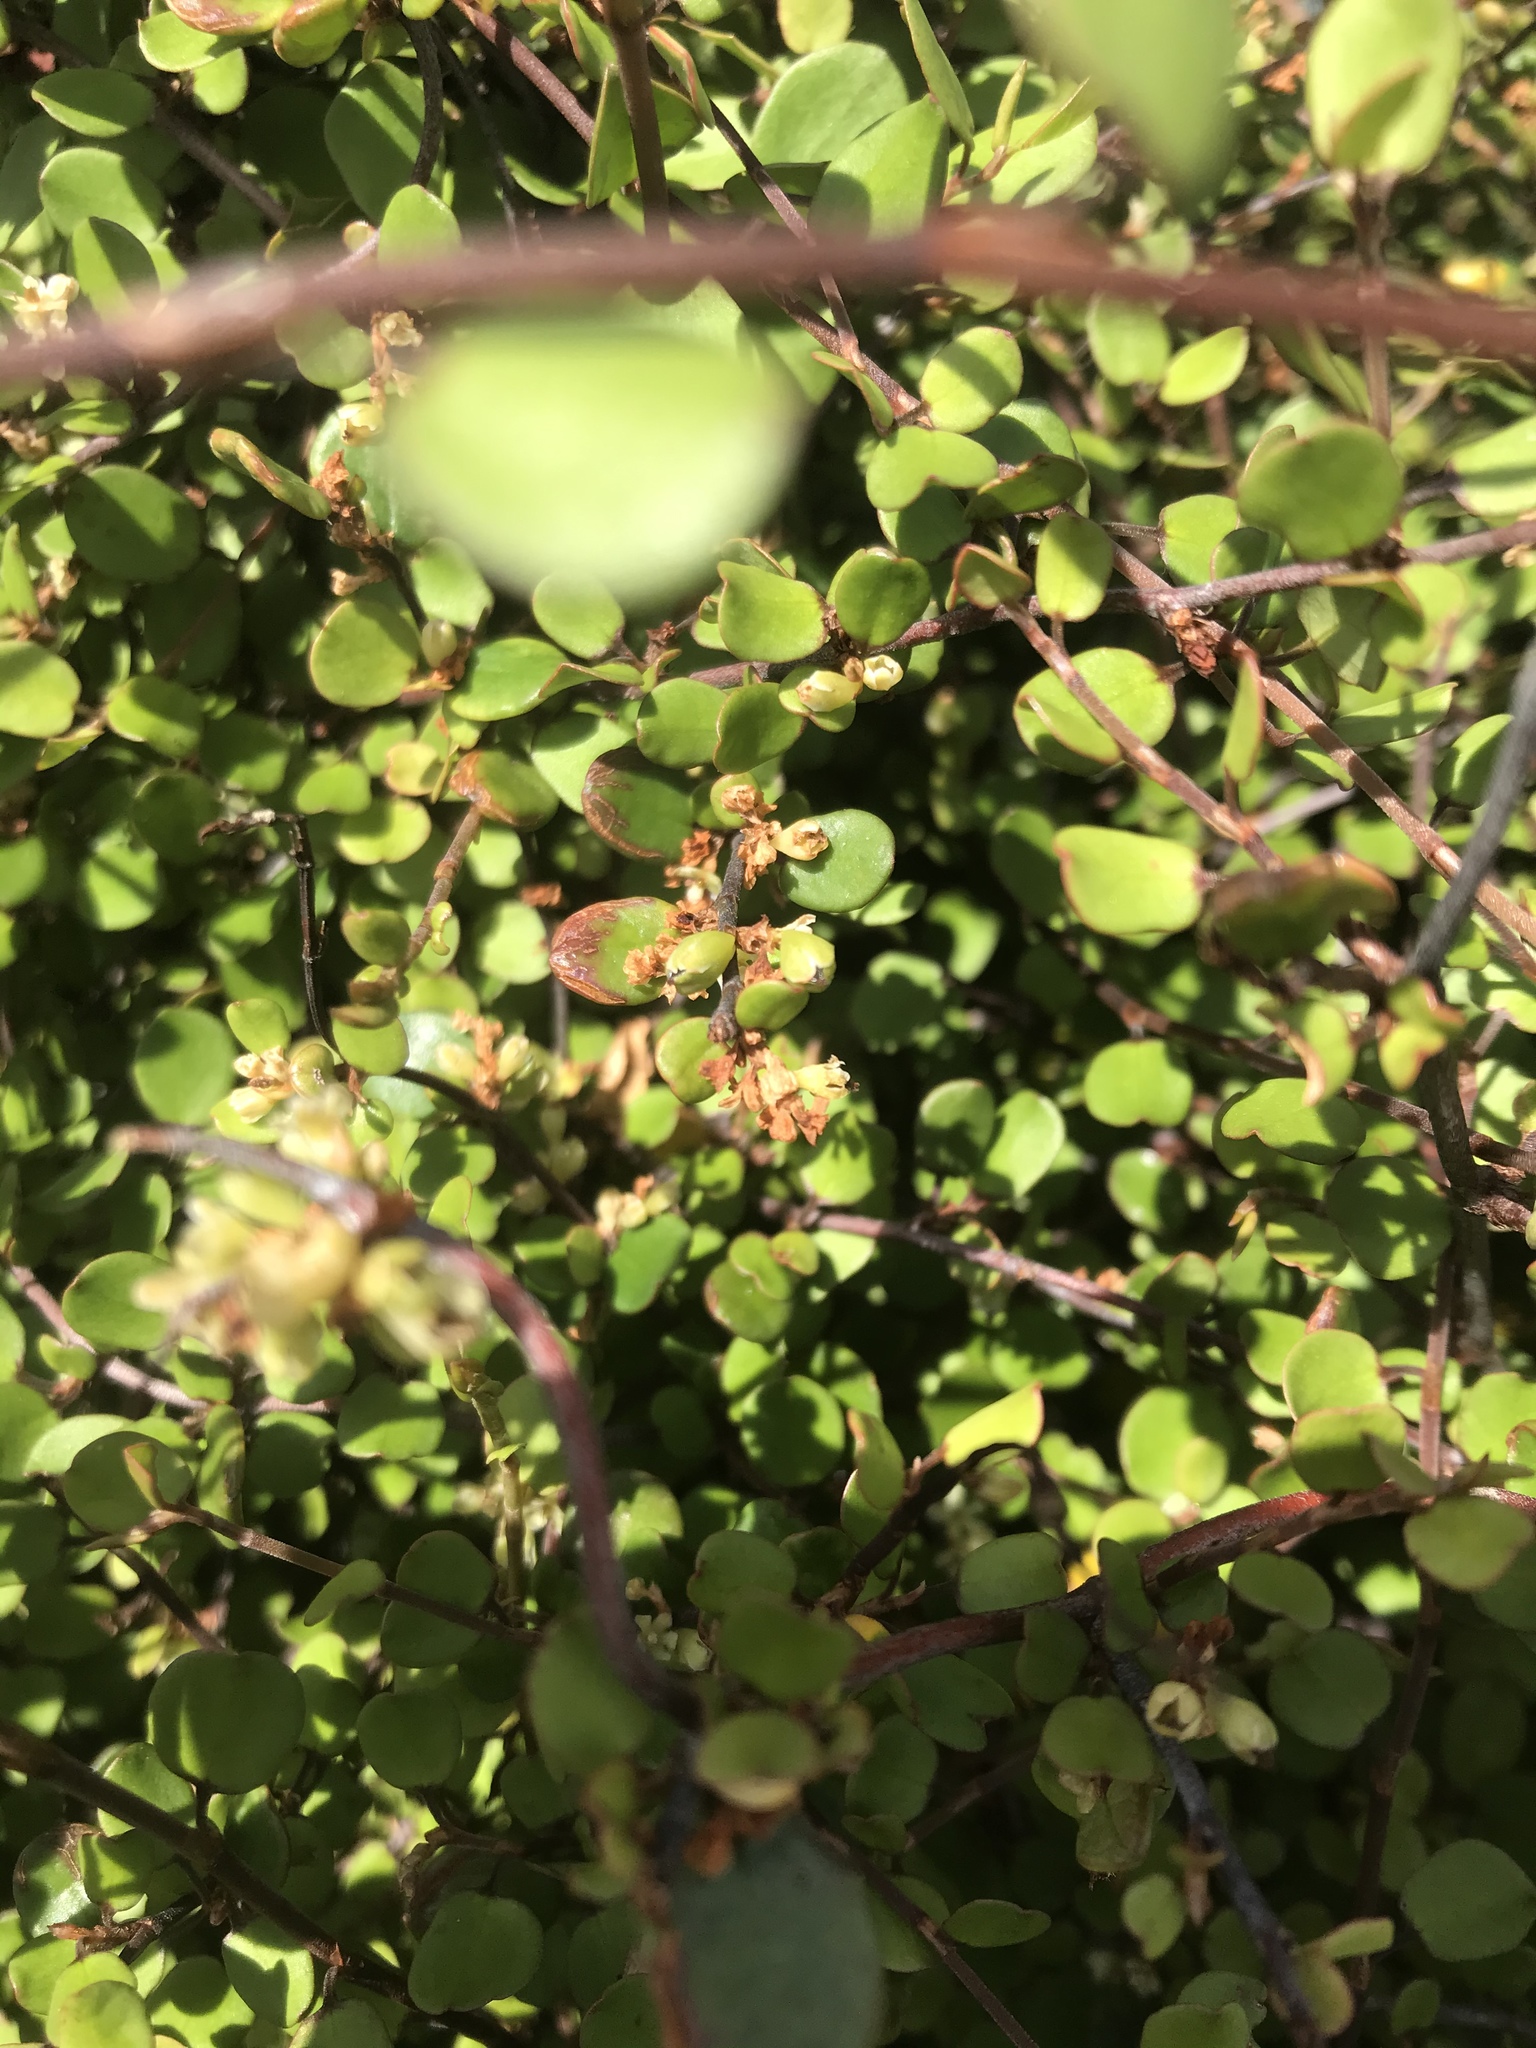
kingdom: Plantae
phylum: Tracheophyta
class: Magnoliopsida
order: Caryophyllales
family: Polygonaceae
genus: Muehlenbeckia
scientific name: Muehlenbeckia complexa
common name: Wireplant
